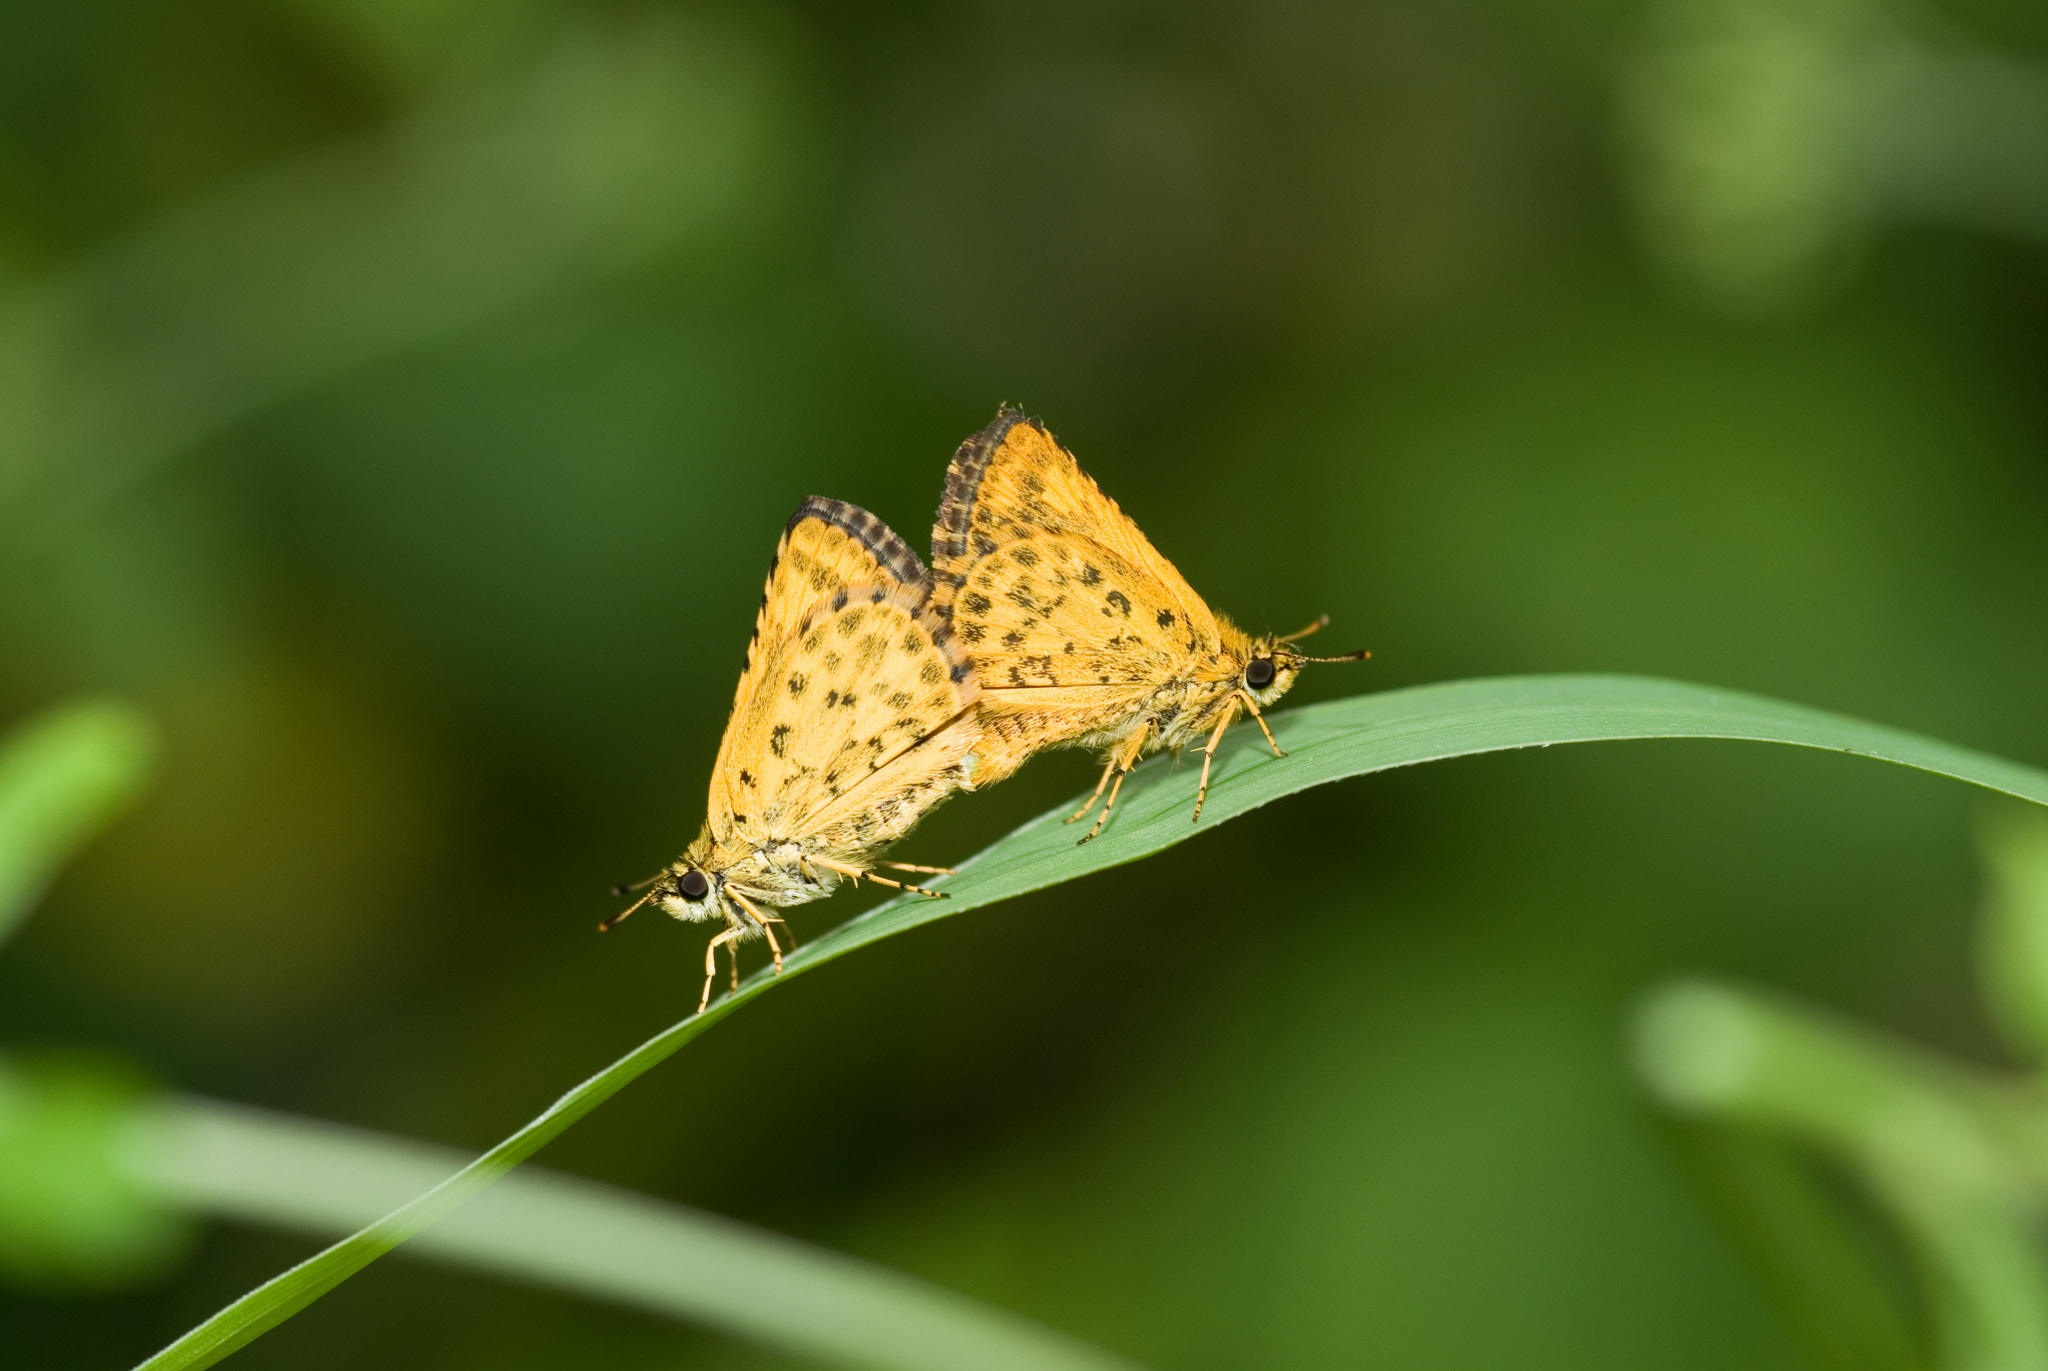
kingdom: Animalia
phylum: Arthropoda
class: Insecta
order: Lepidoptera
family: Hesperiidae
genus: Ampittia
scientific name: Ampittia dioscorides
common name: Common bush hopper
